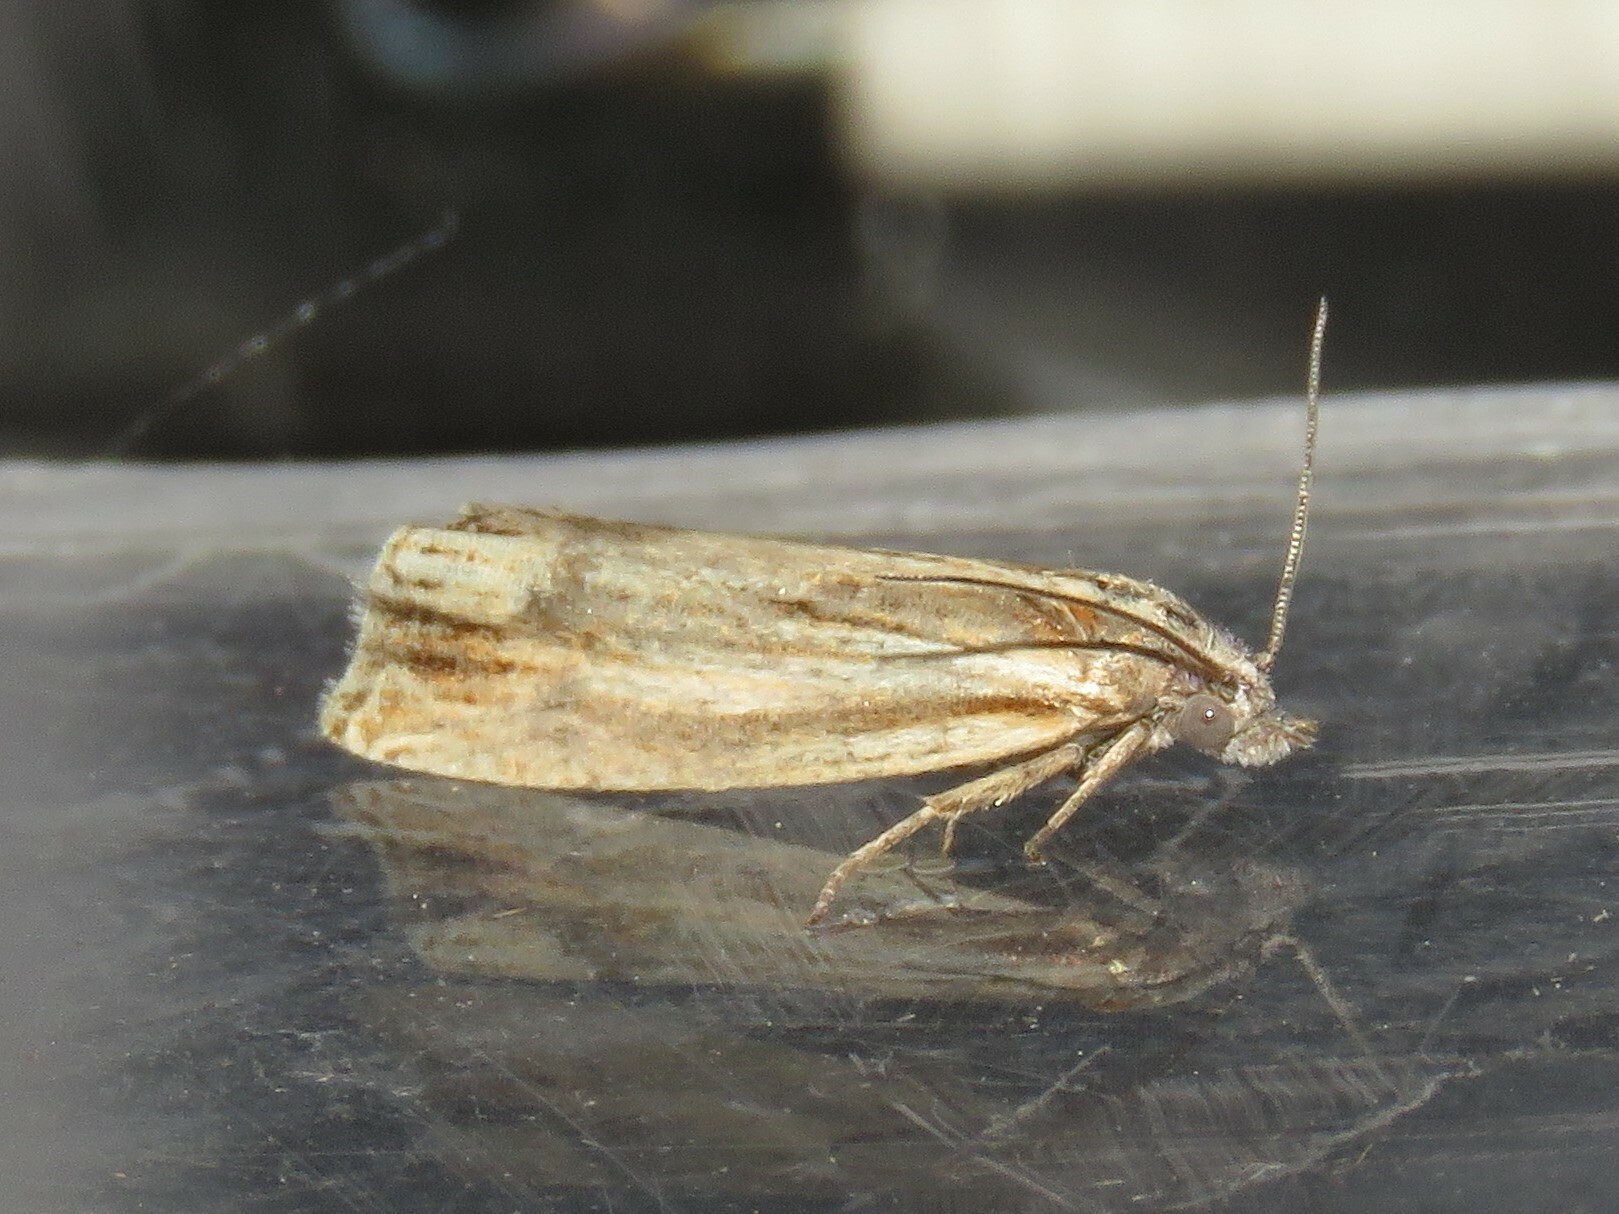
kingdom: Animalia
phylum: Arthropoda
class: Insecta
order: Lepidoptera
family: Tortricidae
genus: Eucosma
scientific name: Eucosma radiatana
